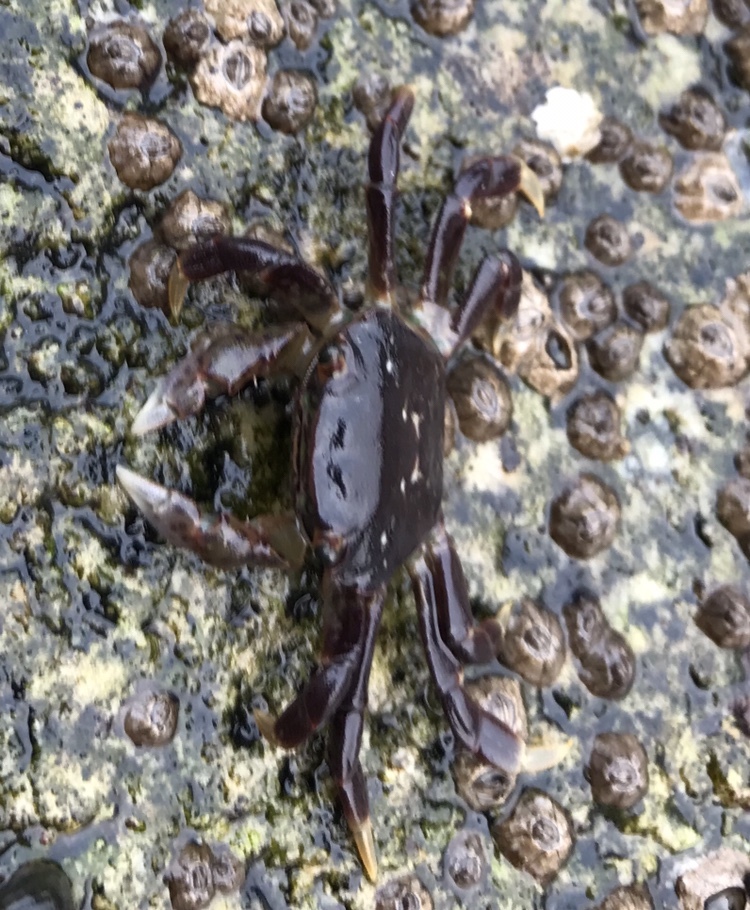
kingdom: Animalia
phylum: Arthropoda
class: Malacostraca
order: Decapoda
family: Varunidae
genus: Hemigrapsus
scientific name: Hemigrapsus nudus
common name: Purple shore crab
